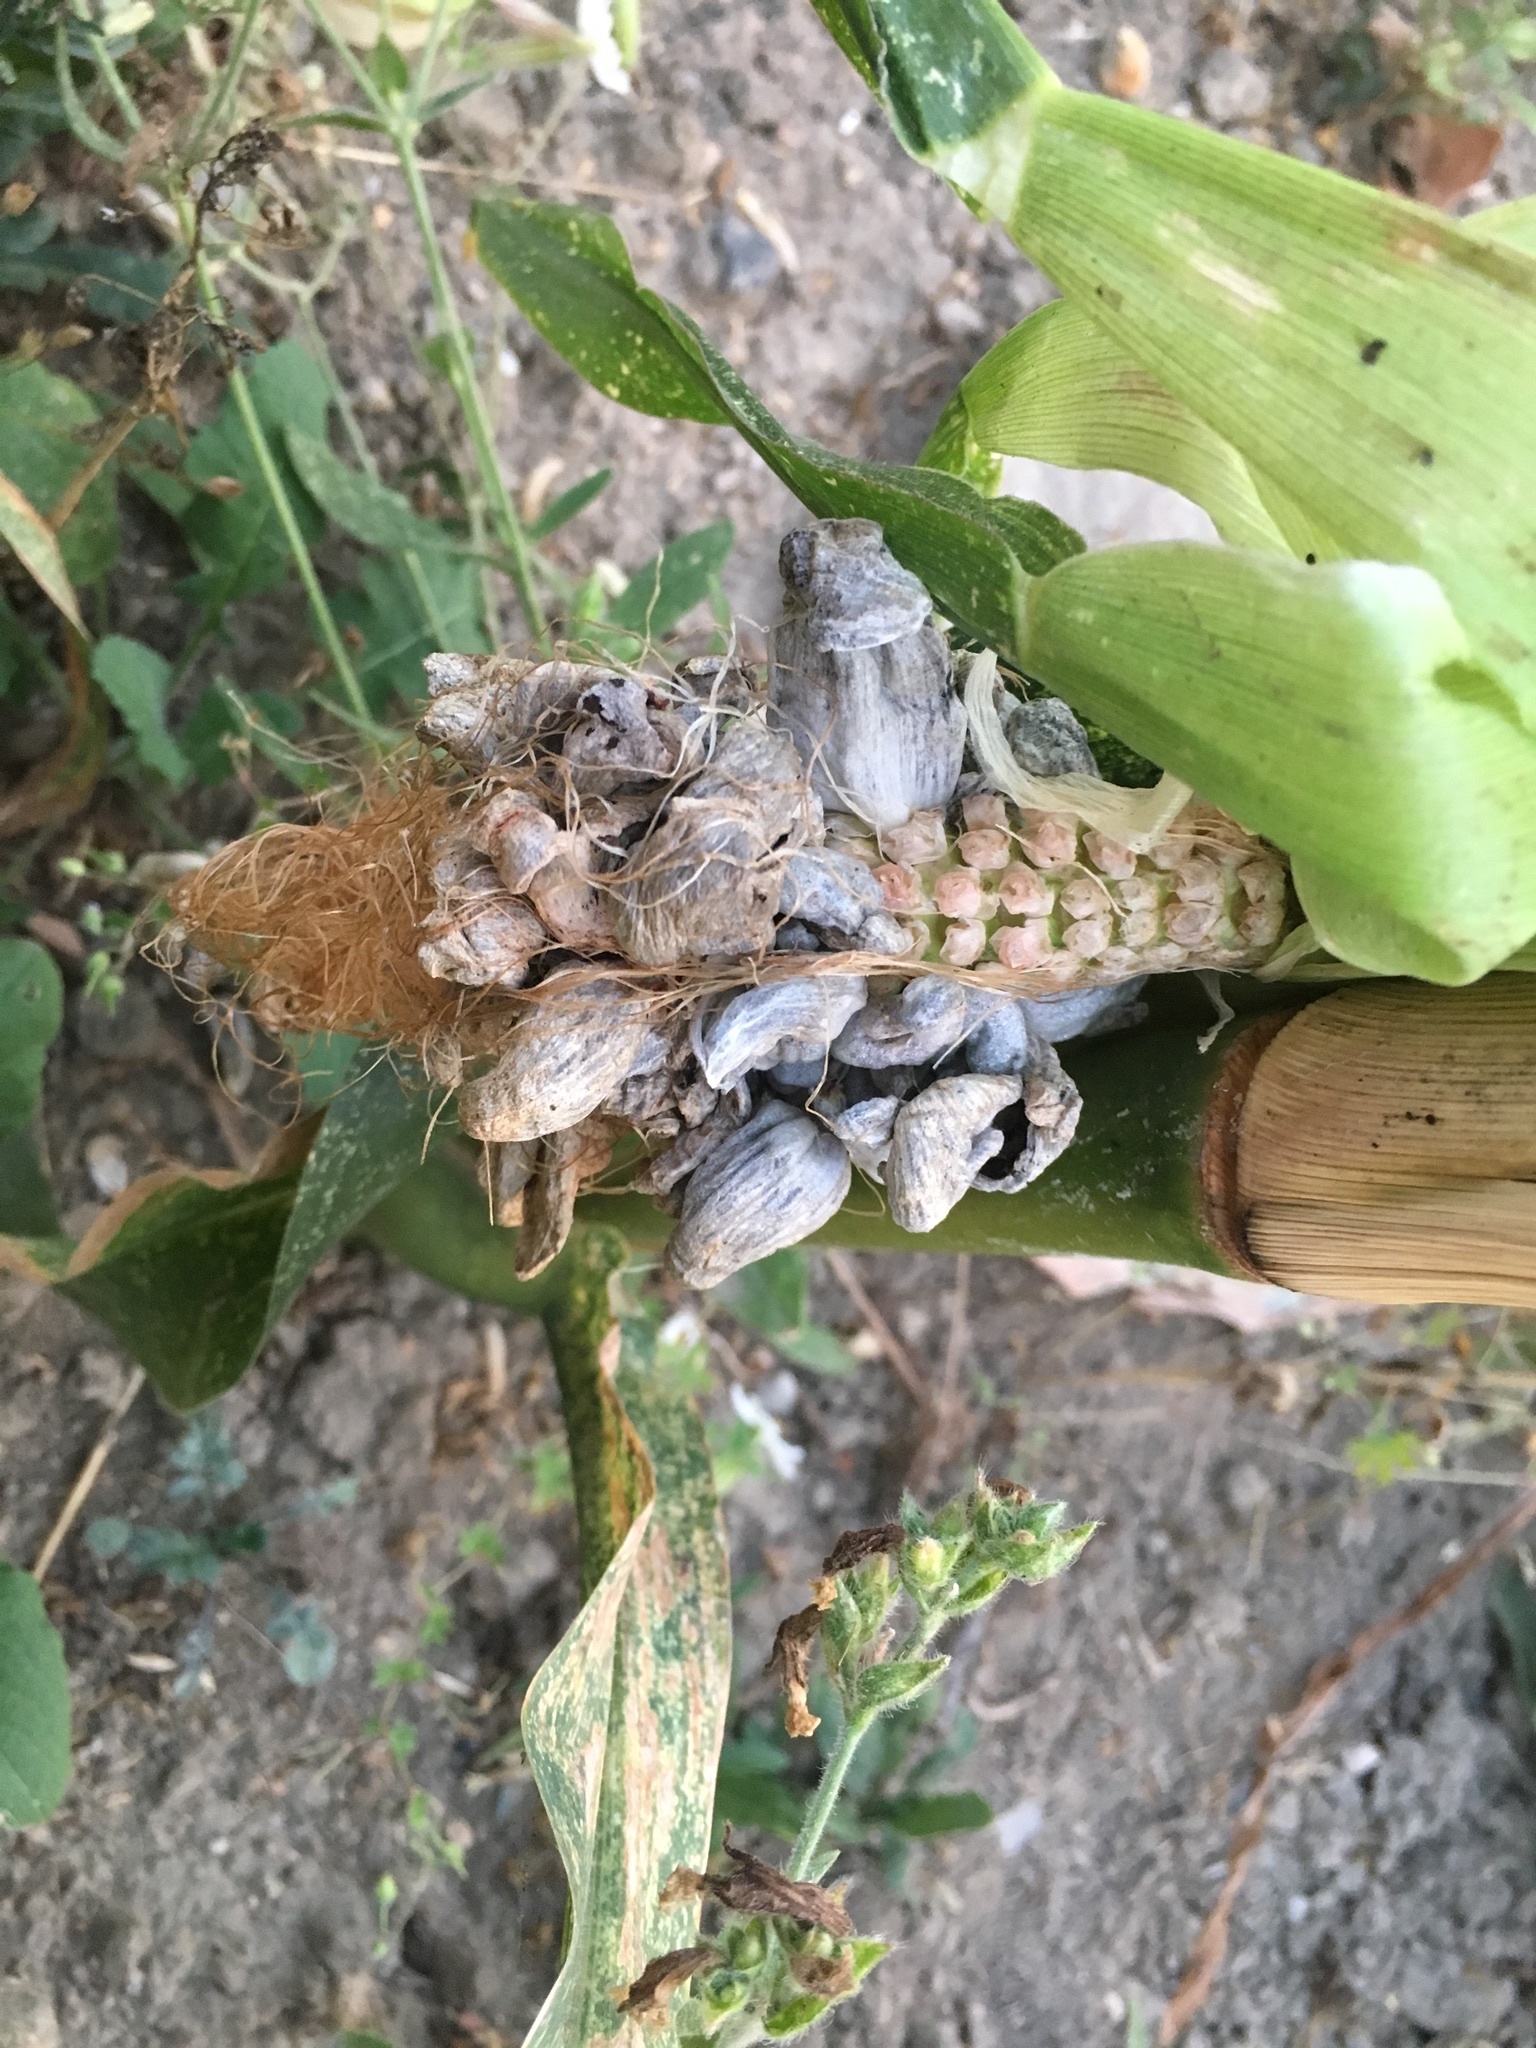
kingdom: Fungi
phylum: Basidiomycota
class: Ustilaginomycetes
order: Ustilaginales
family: Ustilaginaceae
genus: Mycosarcoma
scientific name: Mycosarcoma maydis
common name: Corn smut
